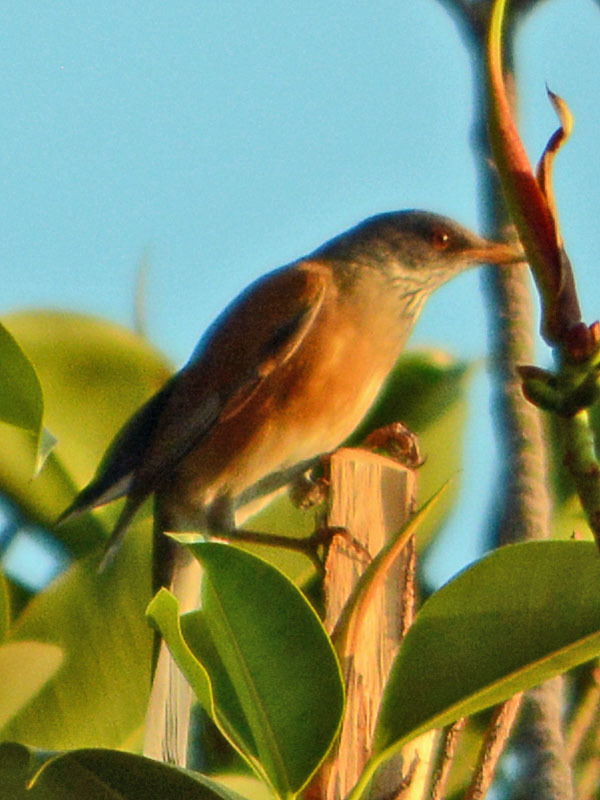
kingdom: Animalia
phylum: Chordata
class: Aves
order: Passeriformes
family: Turdidae
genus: Turdus
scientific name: Turdus rufopalliatus
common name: Rufous-backed robin
